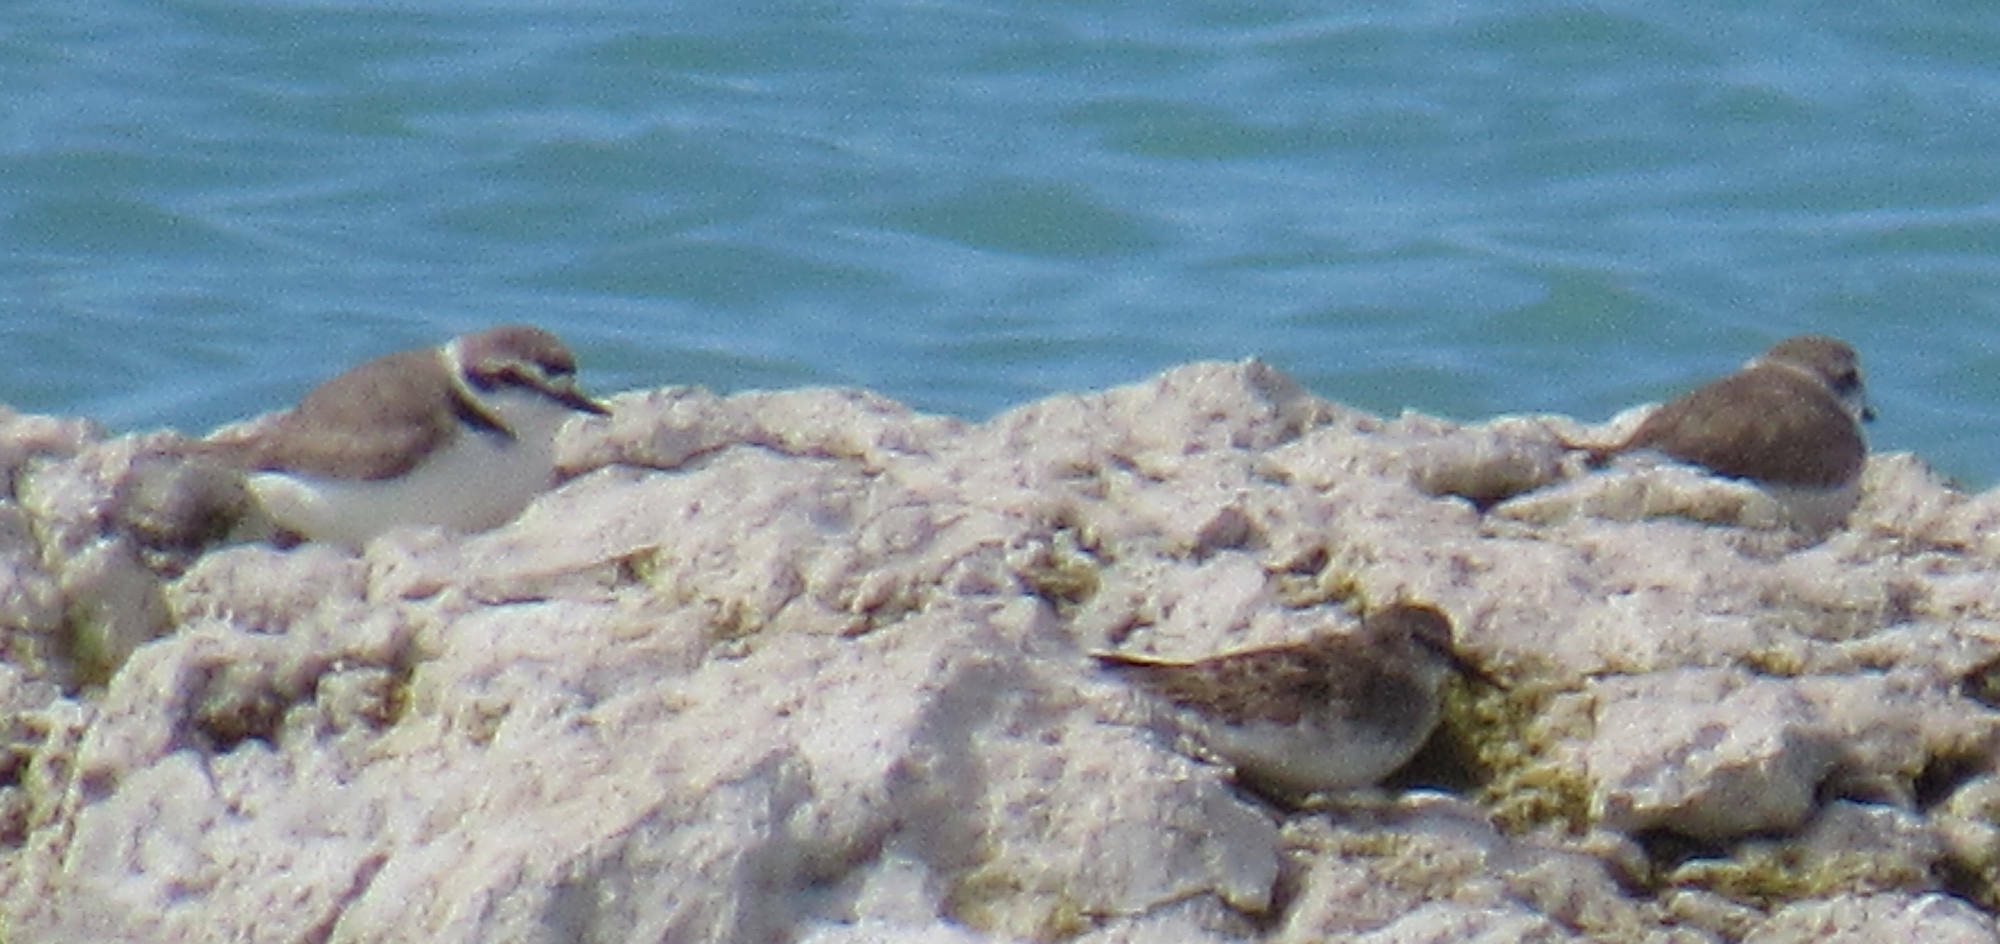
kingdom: Animalia
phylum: Chordata
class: Aves
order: Charadriiformes
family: Charadriidae
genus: Anarhynchus
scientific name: Anarhynchus
